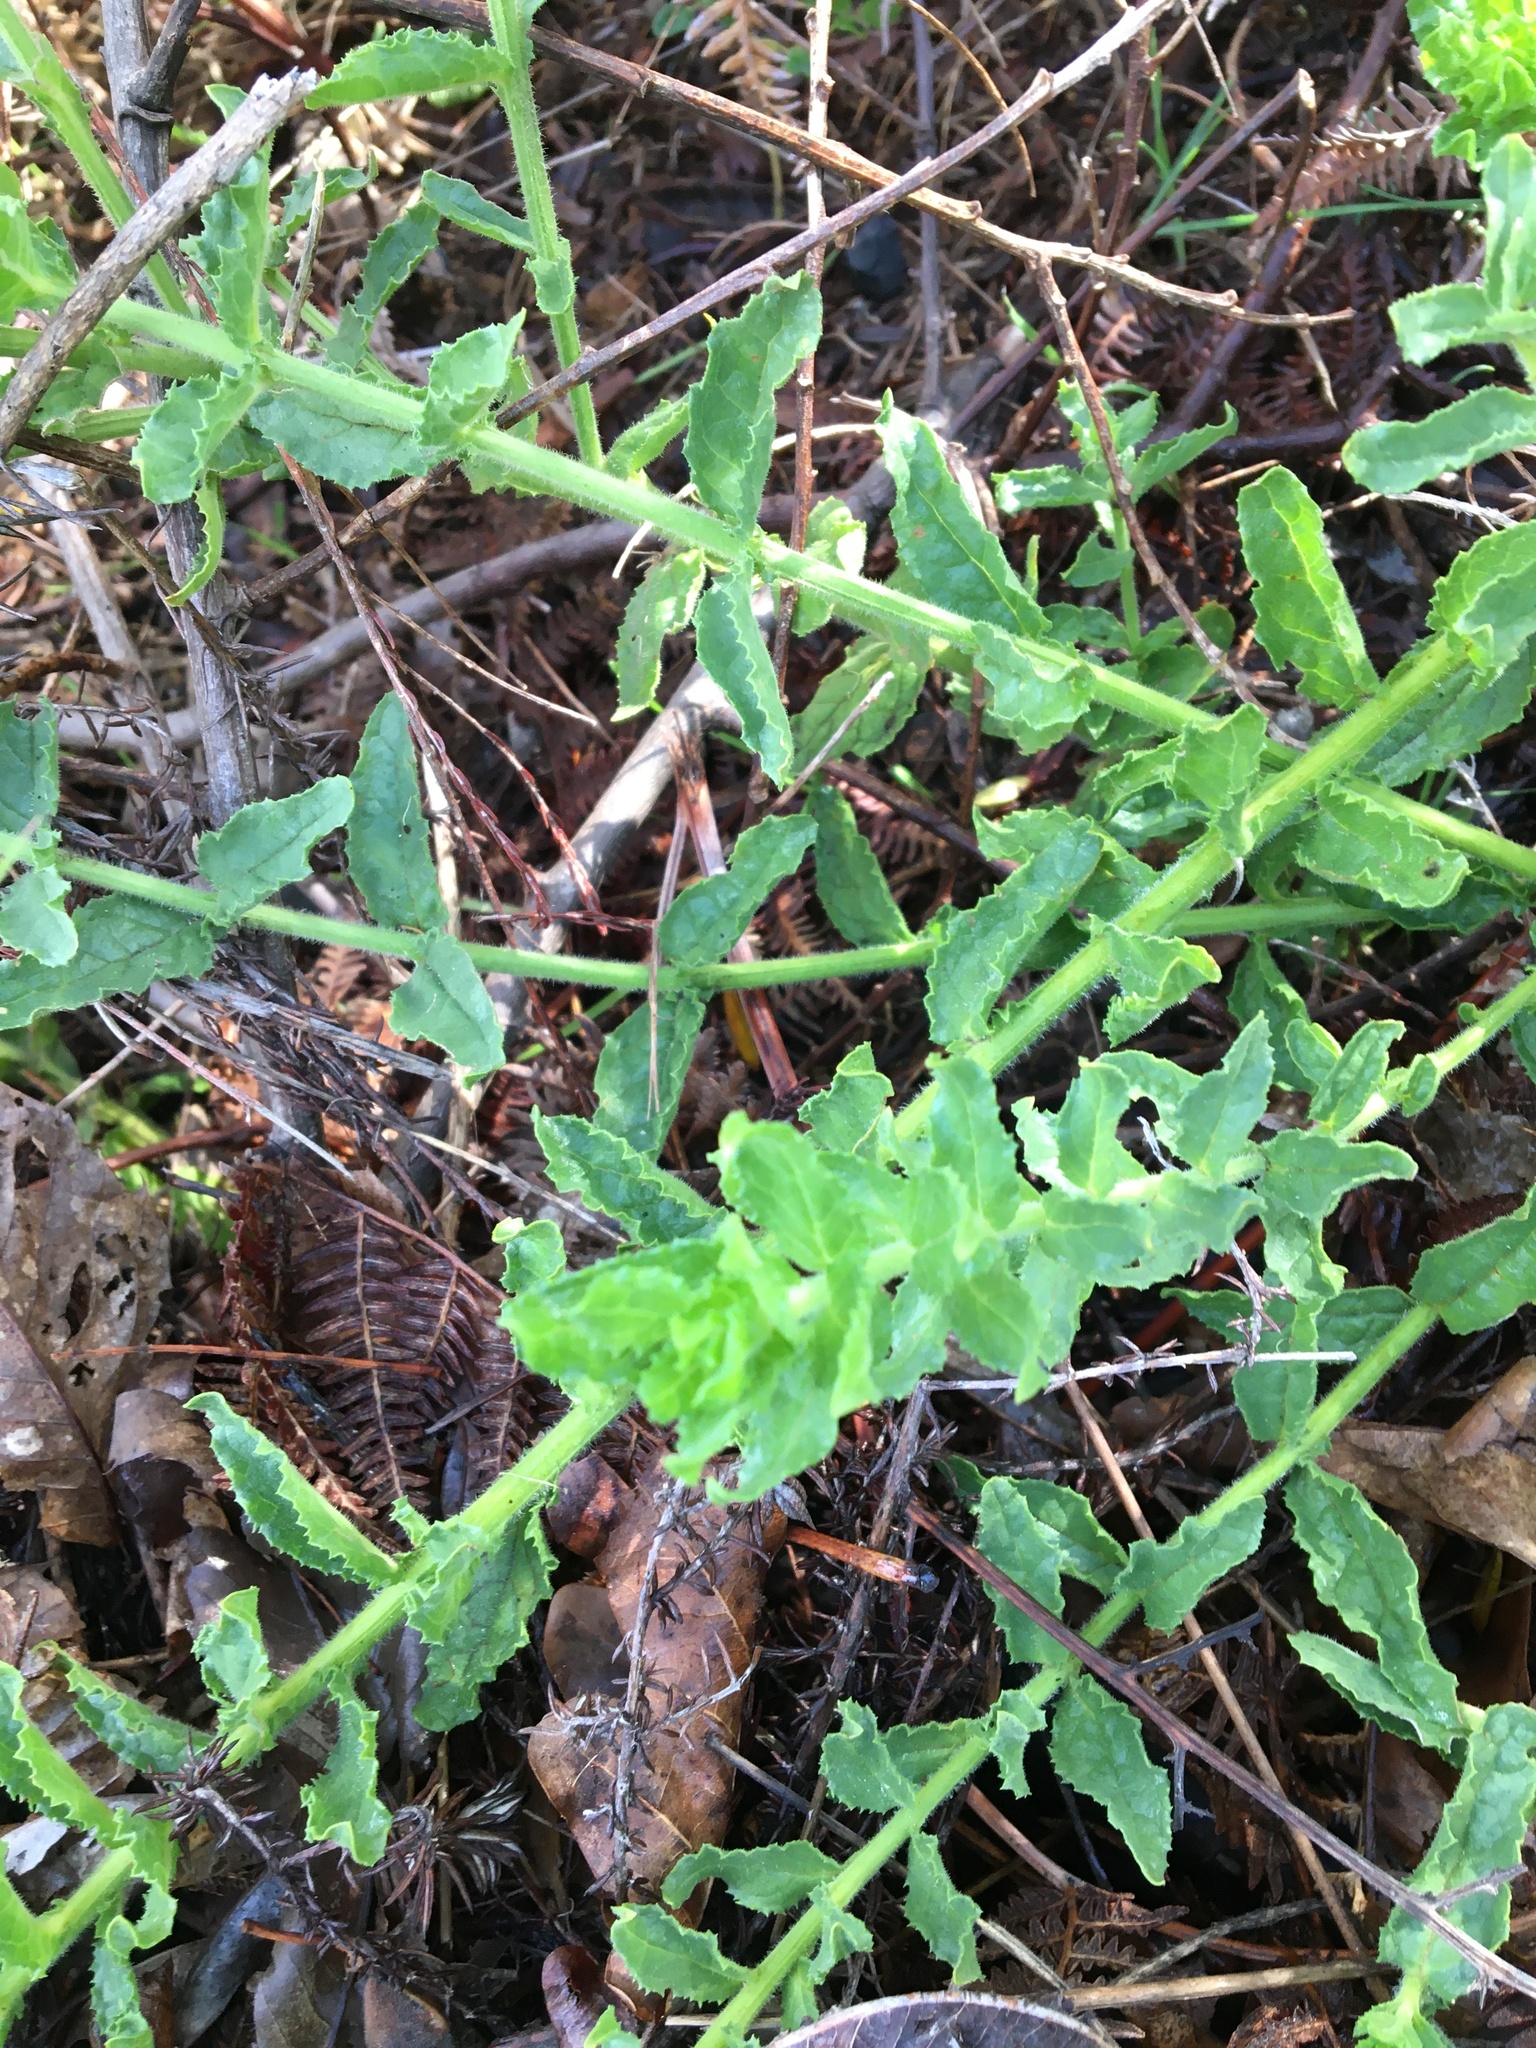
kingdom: Plantae
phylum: Tracheophyta
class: Magnoliopsida
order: Lamiales
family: Scrophulariaceae
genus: Oftia
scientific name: Oftia africana
